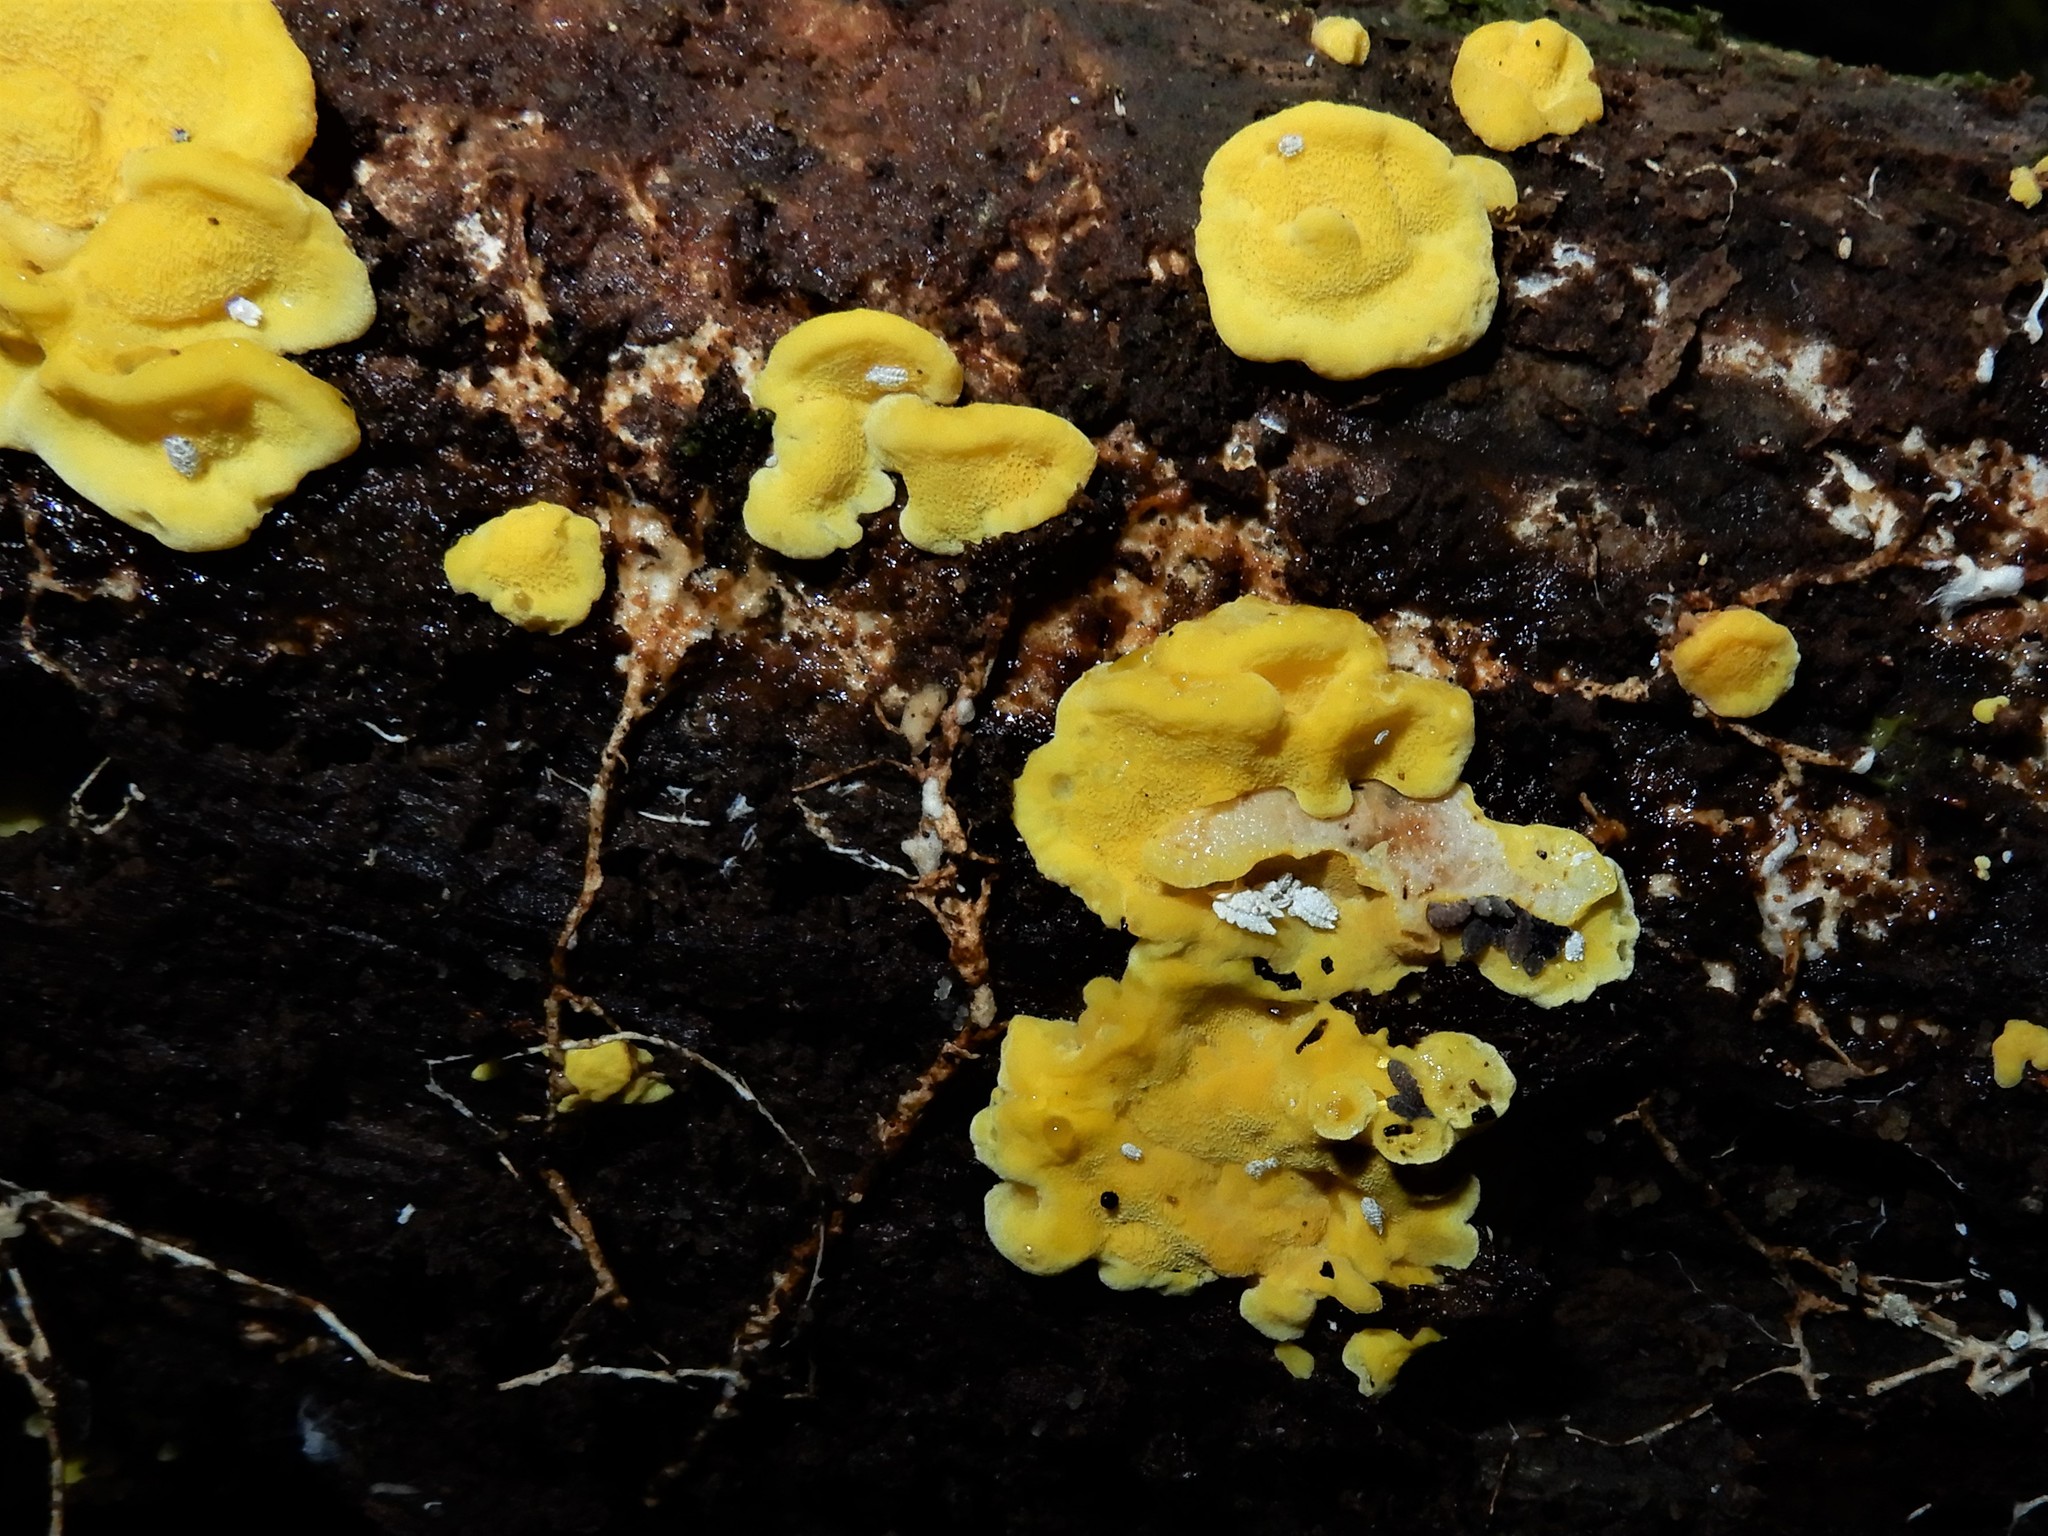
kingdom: Fungi
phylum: Basidiomycota
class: Agaricomycetes
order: Polyporales
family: Steccherinaceae
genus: Flaviporus
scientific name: Flaviporus brownii
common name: Yellowpored bracket
